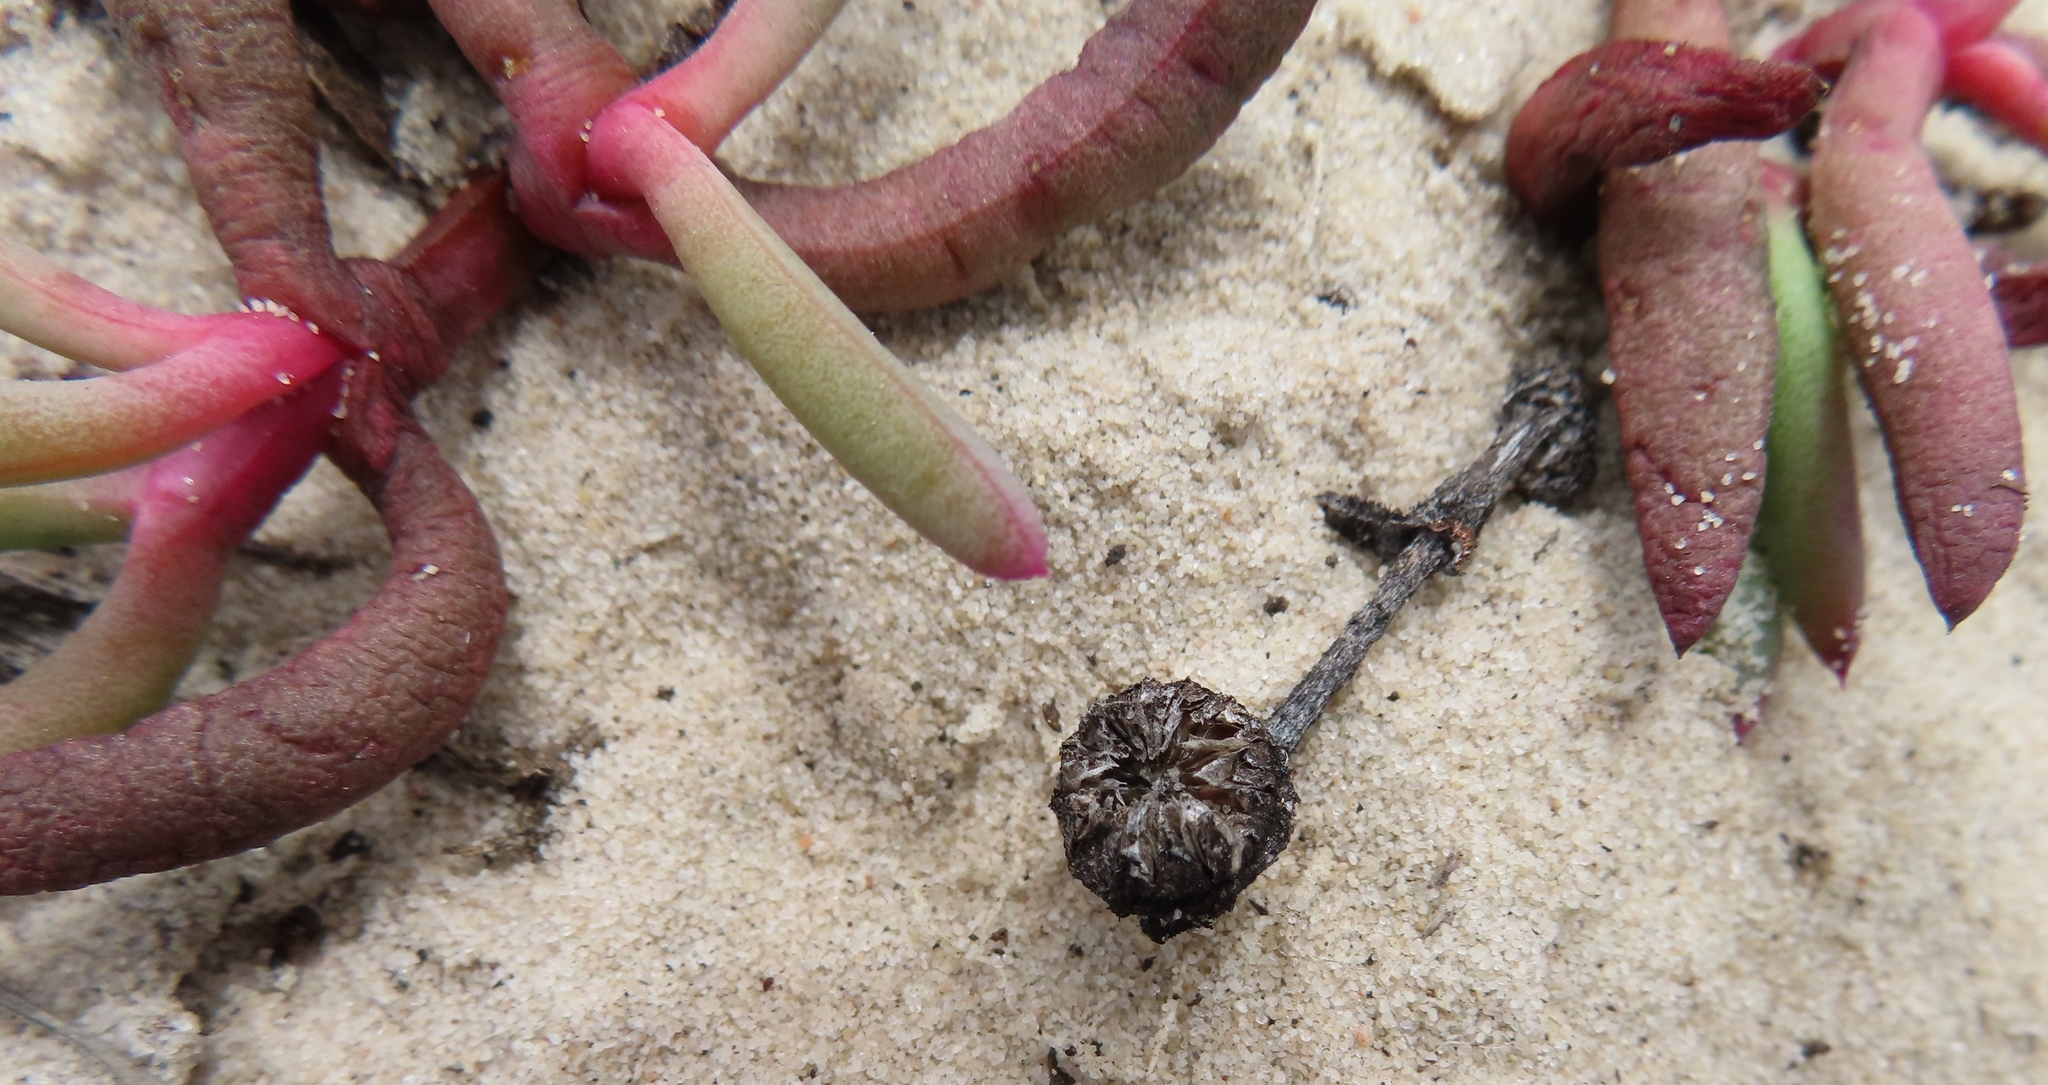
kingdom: Plantae
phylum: Tracheophyta
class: Magnoliopsida
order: Caryophyllales
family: Aizoaceae
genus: Jordaaniella
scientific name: Jordaaniella dubia
